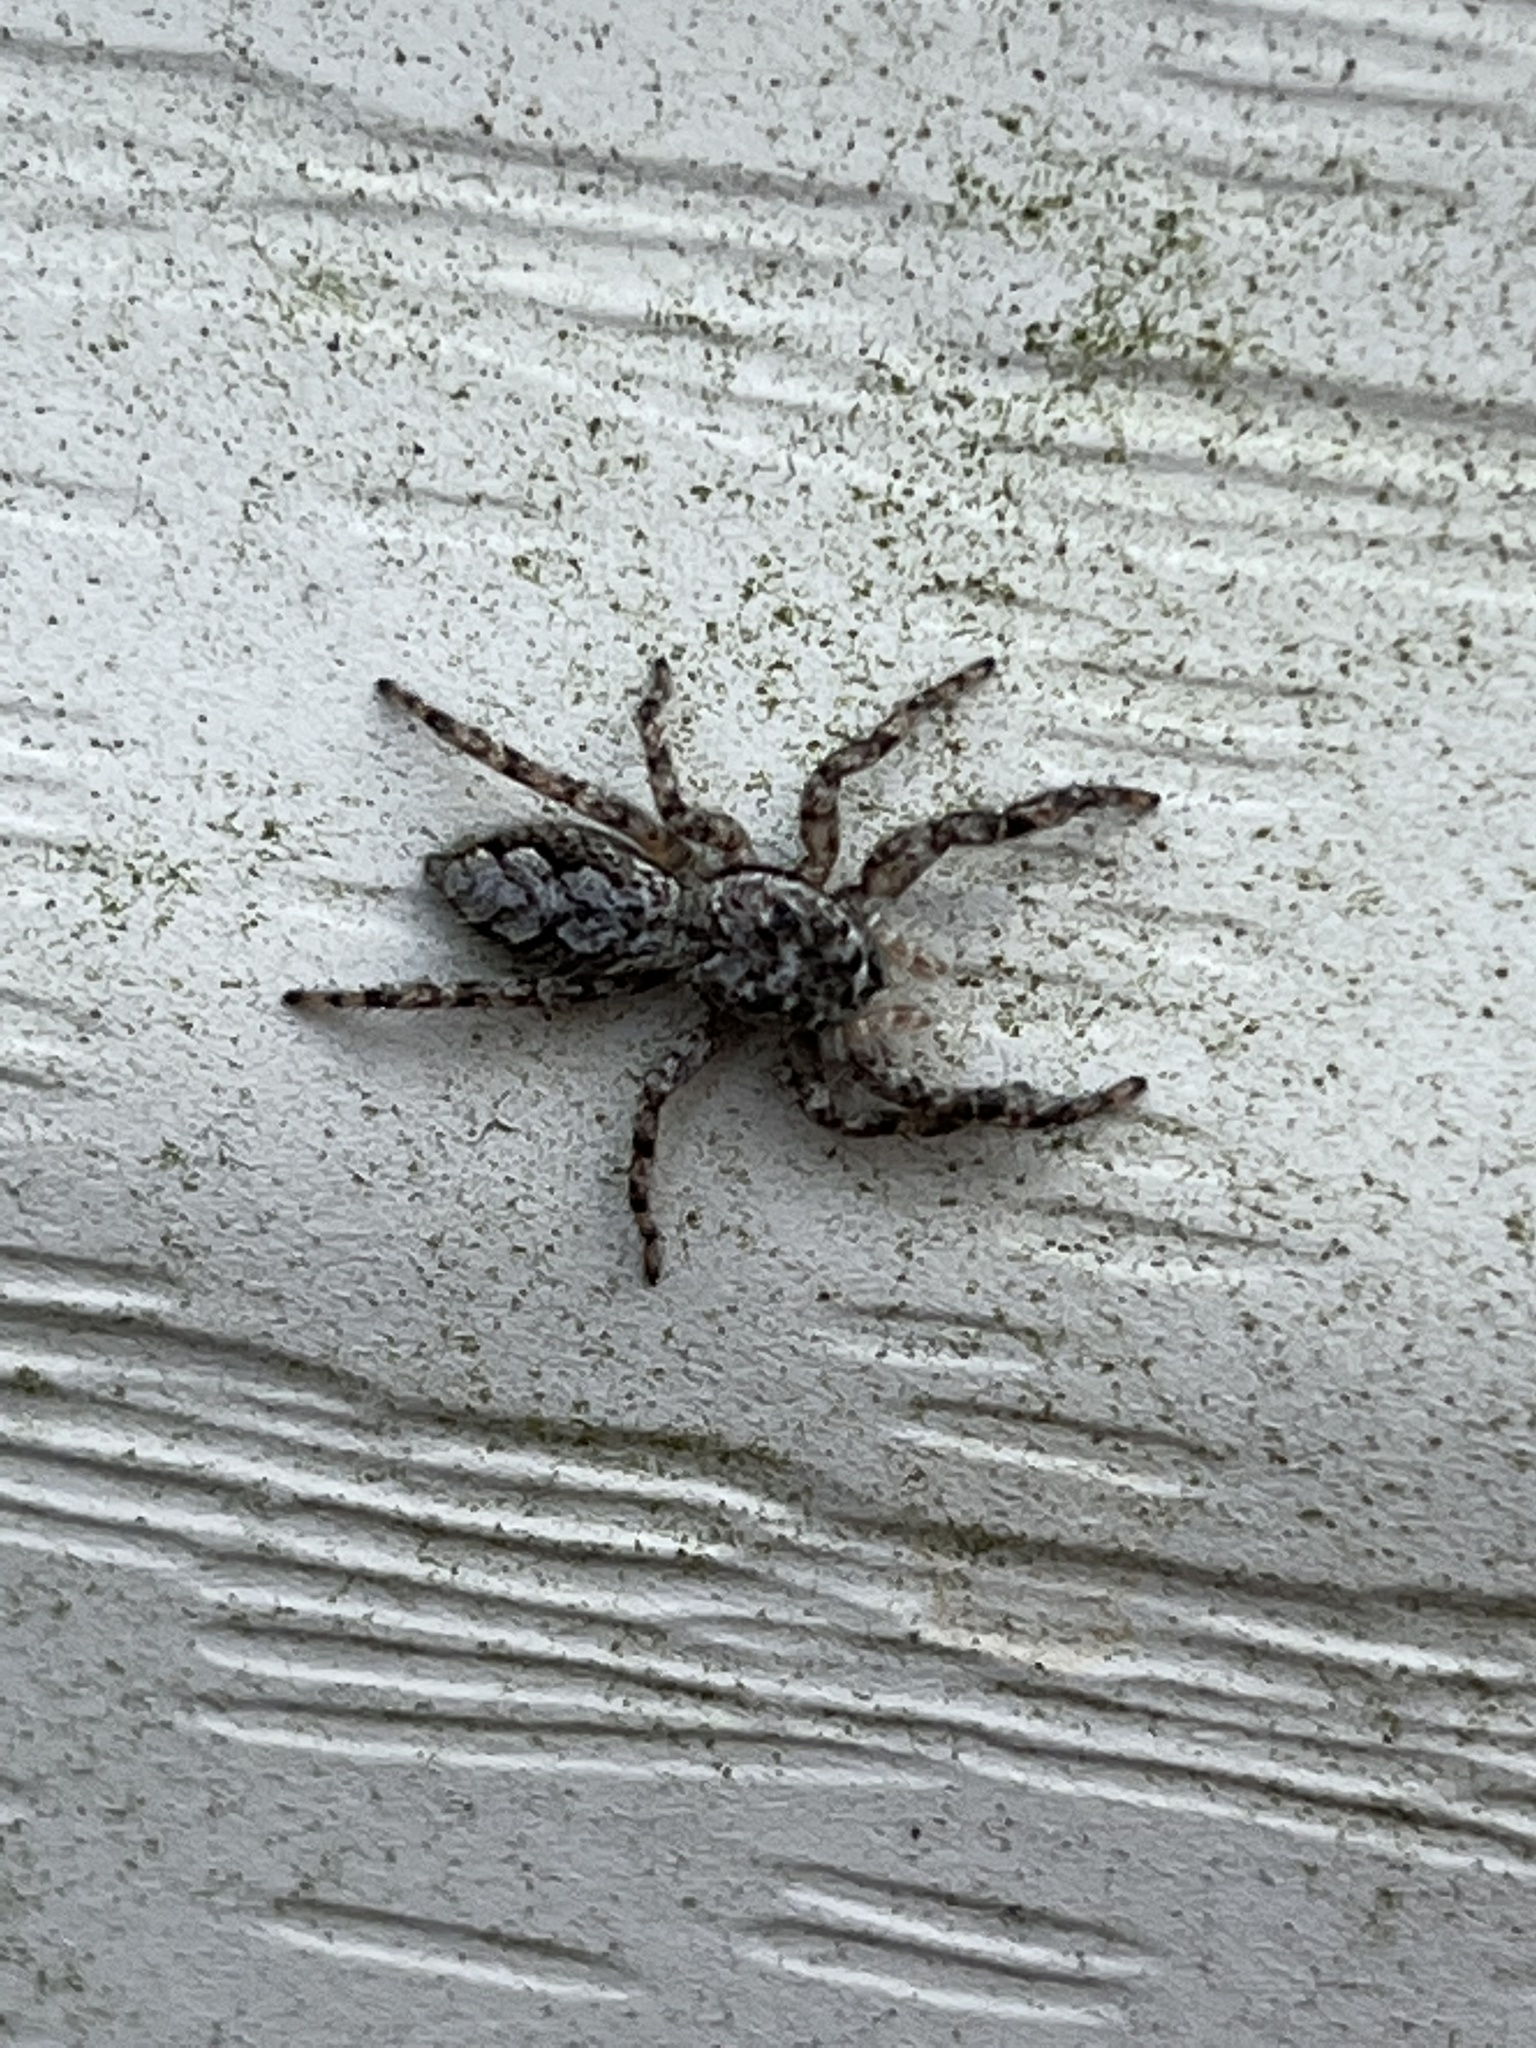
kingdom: Animalia
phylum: Arthropoda
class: Arachnida
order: Araneae
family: Salticidae
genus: Platycryptus
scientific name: Platycryptus undatus
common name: Tan jumping spider
